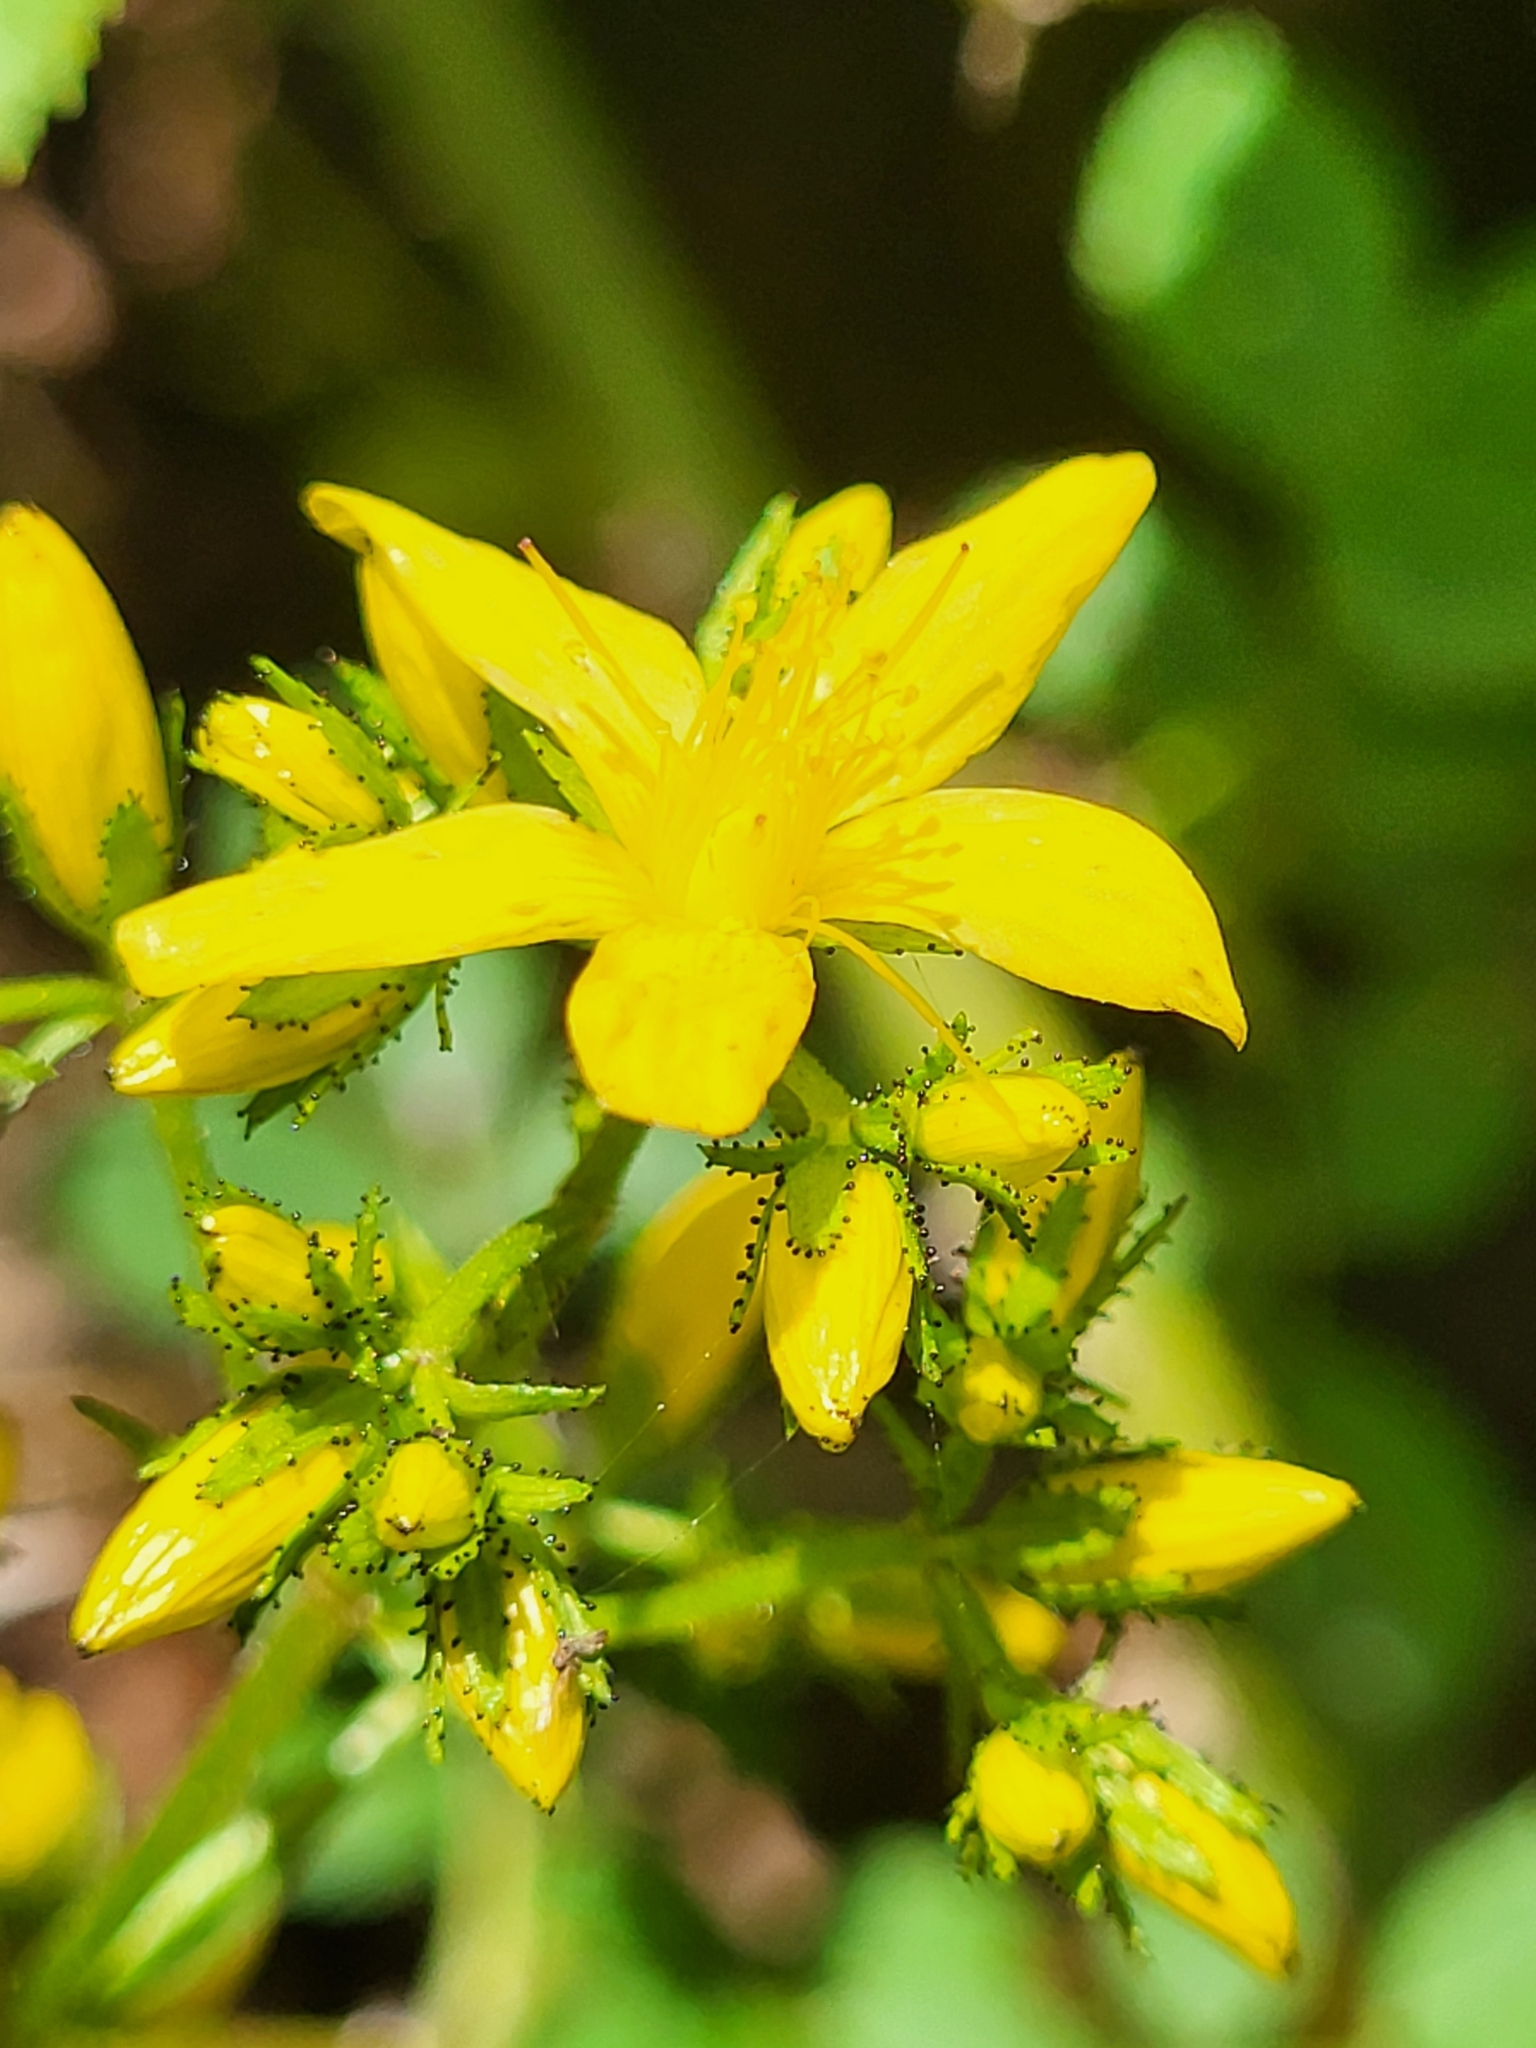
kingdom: Plantae
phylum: Tracheophyta
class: Magnoliopsida
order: Malpighiales
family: Hypericaceae
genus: Hypericum
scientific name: Hypericum hirsutum
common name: Hairy st. john's-wort
